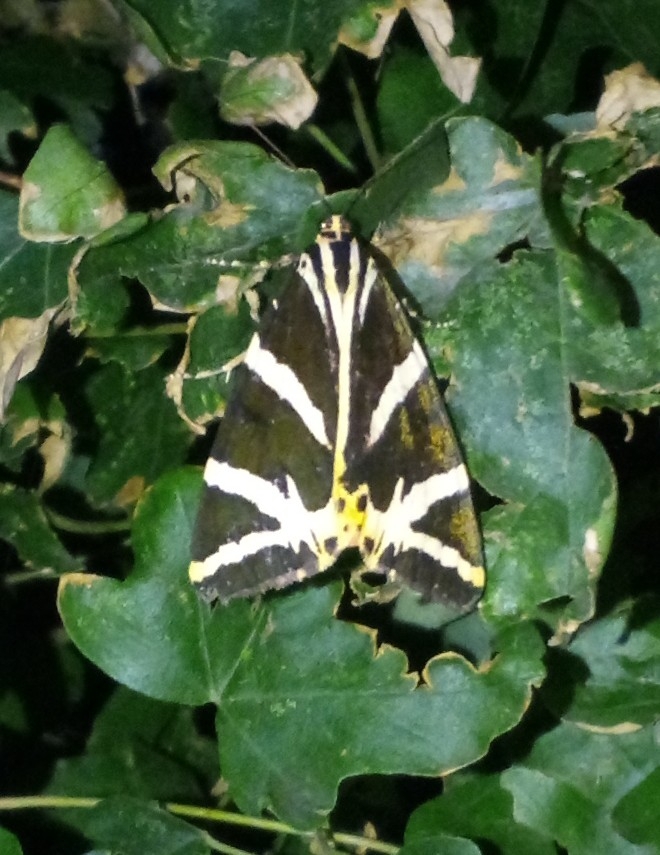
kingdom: Animalia
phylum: Arthropoda
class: Insecta
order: Lepidoptera
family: Erebidae
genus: Euplagia
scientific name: Euplagia quadripunctaria
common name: Jersey tiger
